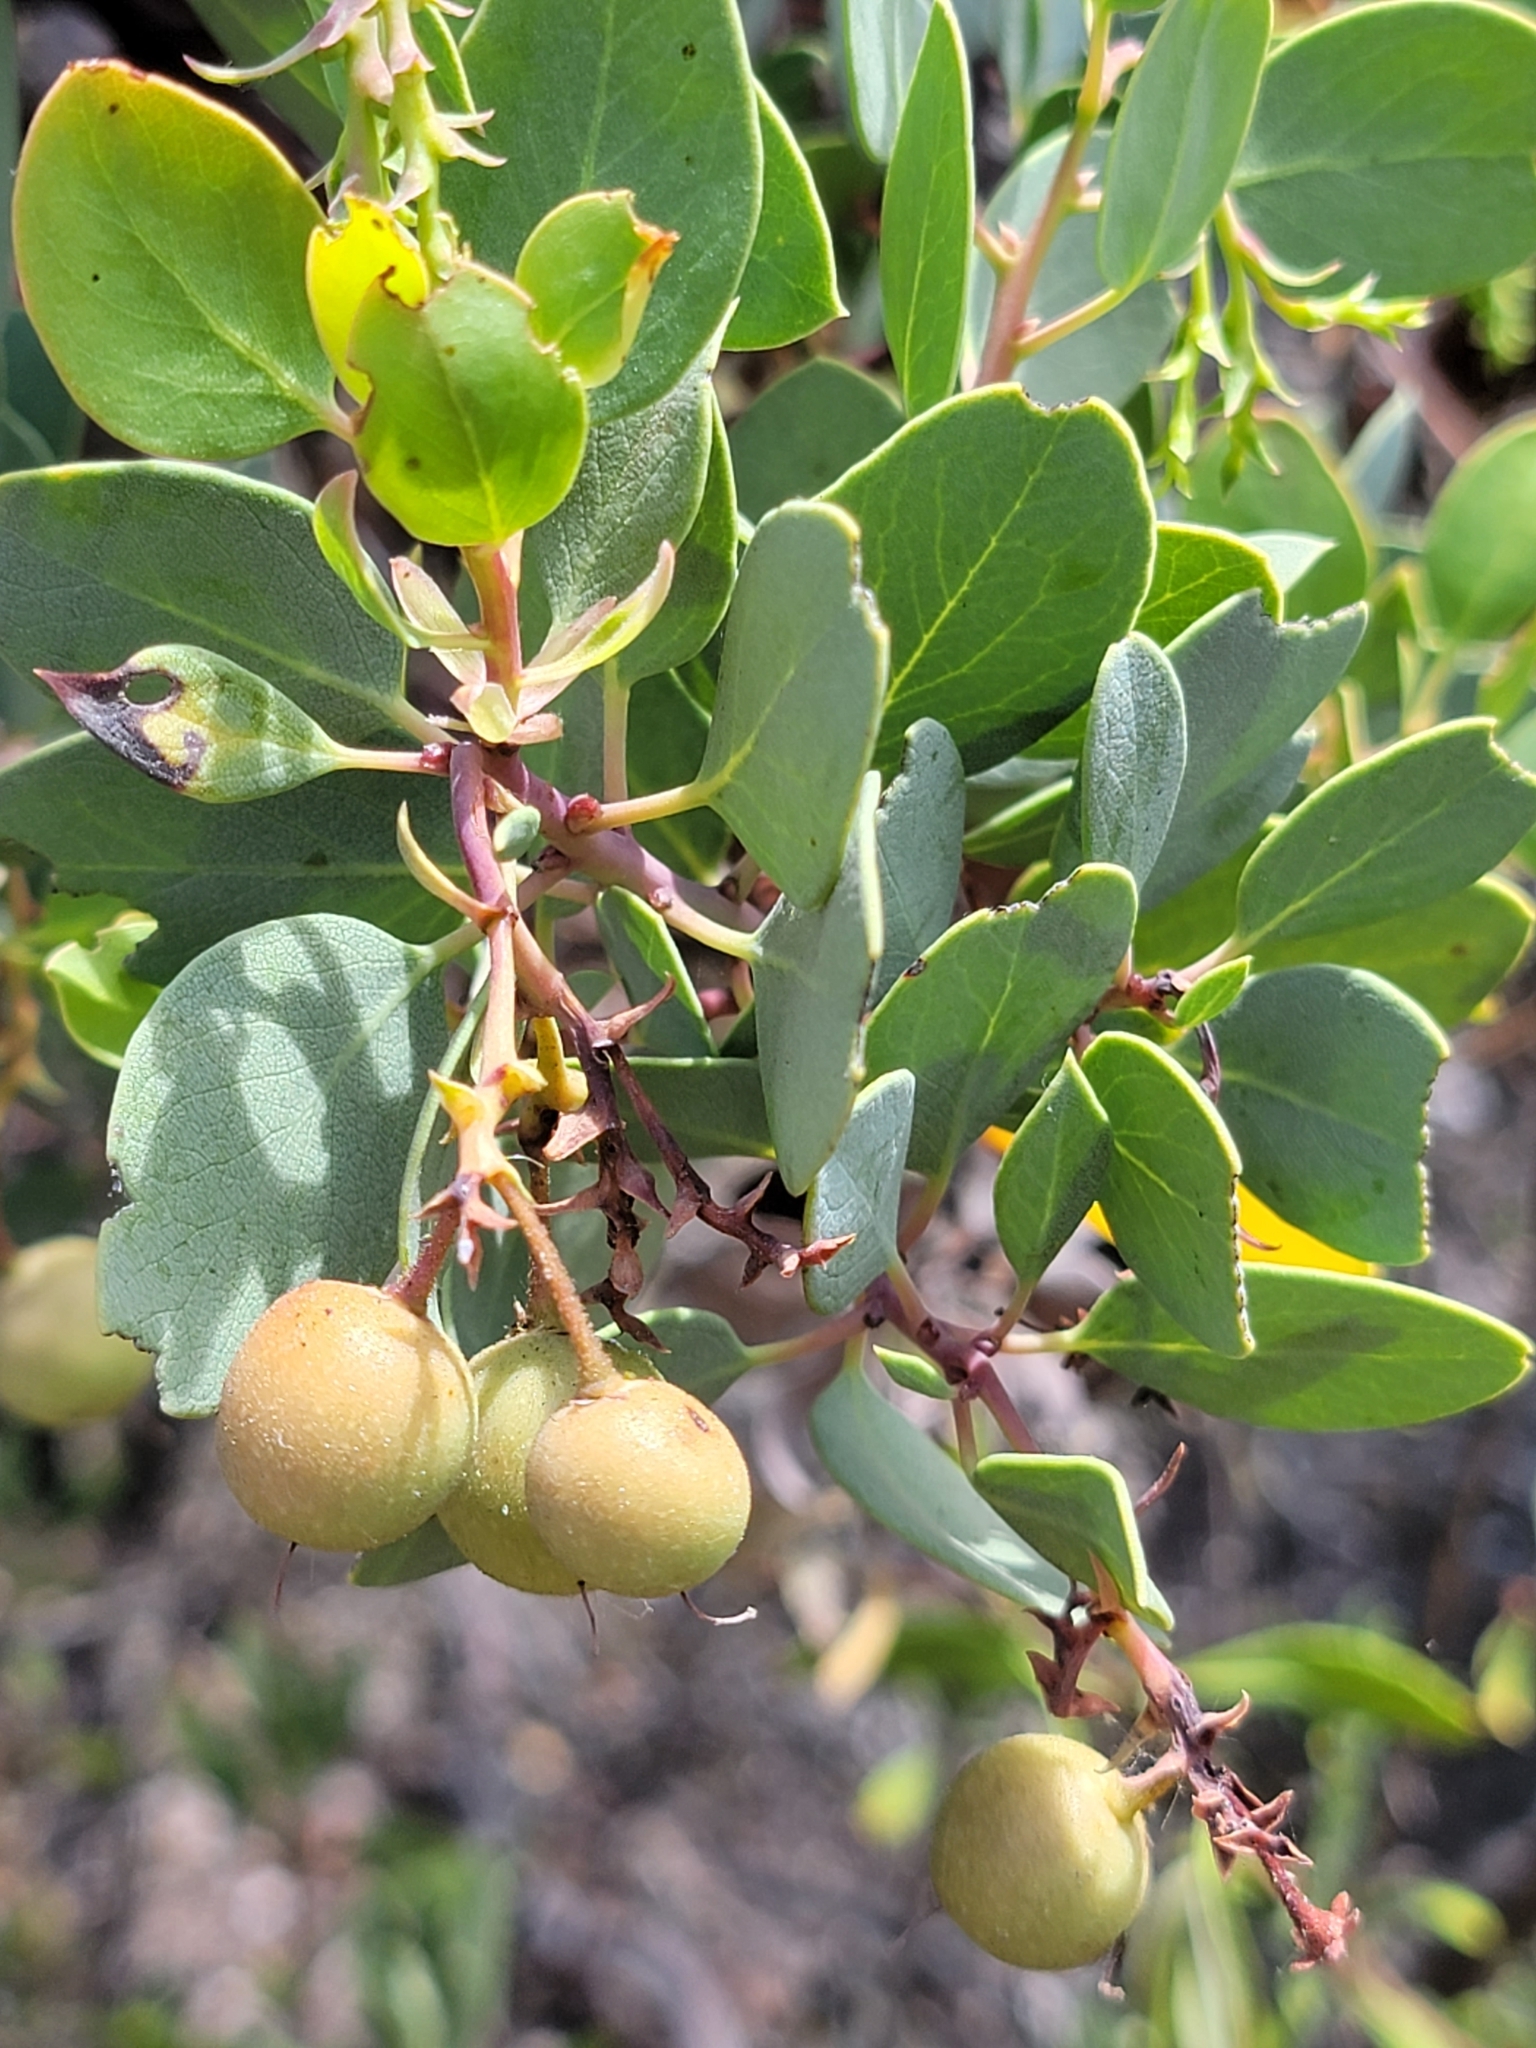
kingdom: Plantae
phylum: Tracheophyta
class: Magnoliopsida
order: Ericales
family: Ericaceae
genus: Arctostaphylos
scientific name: Arctostaphylos glauca
